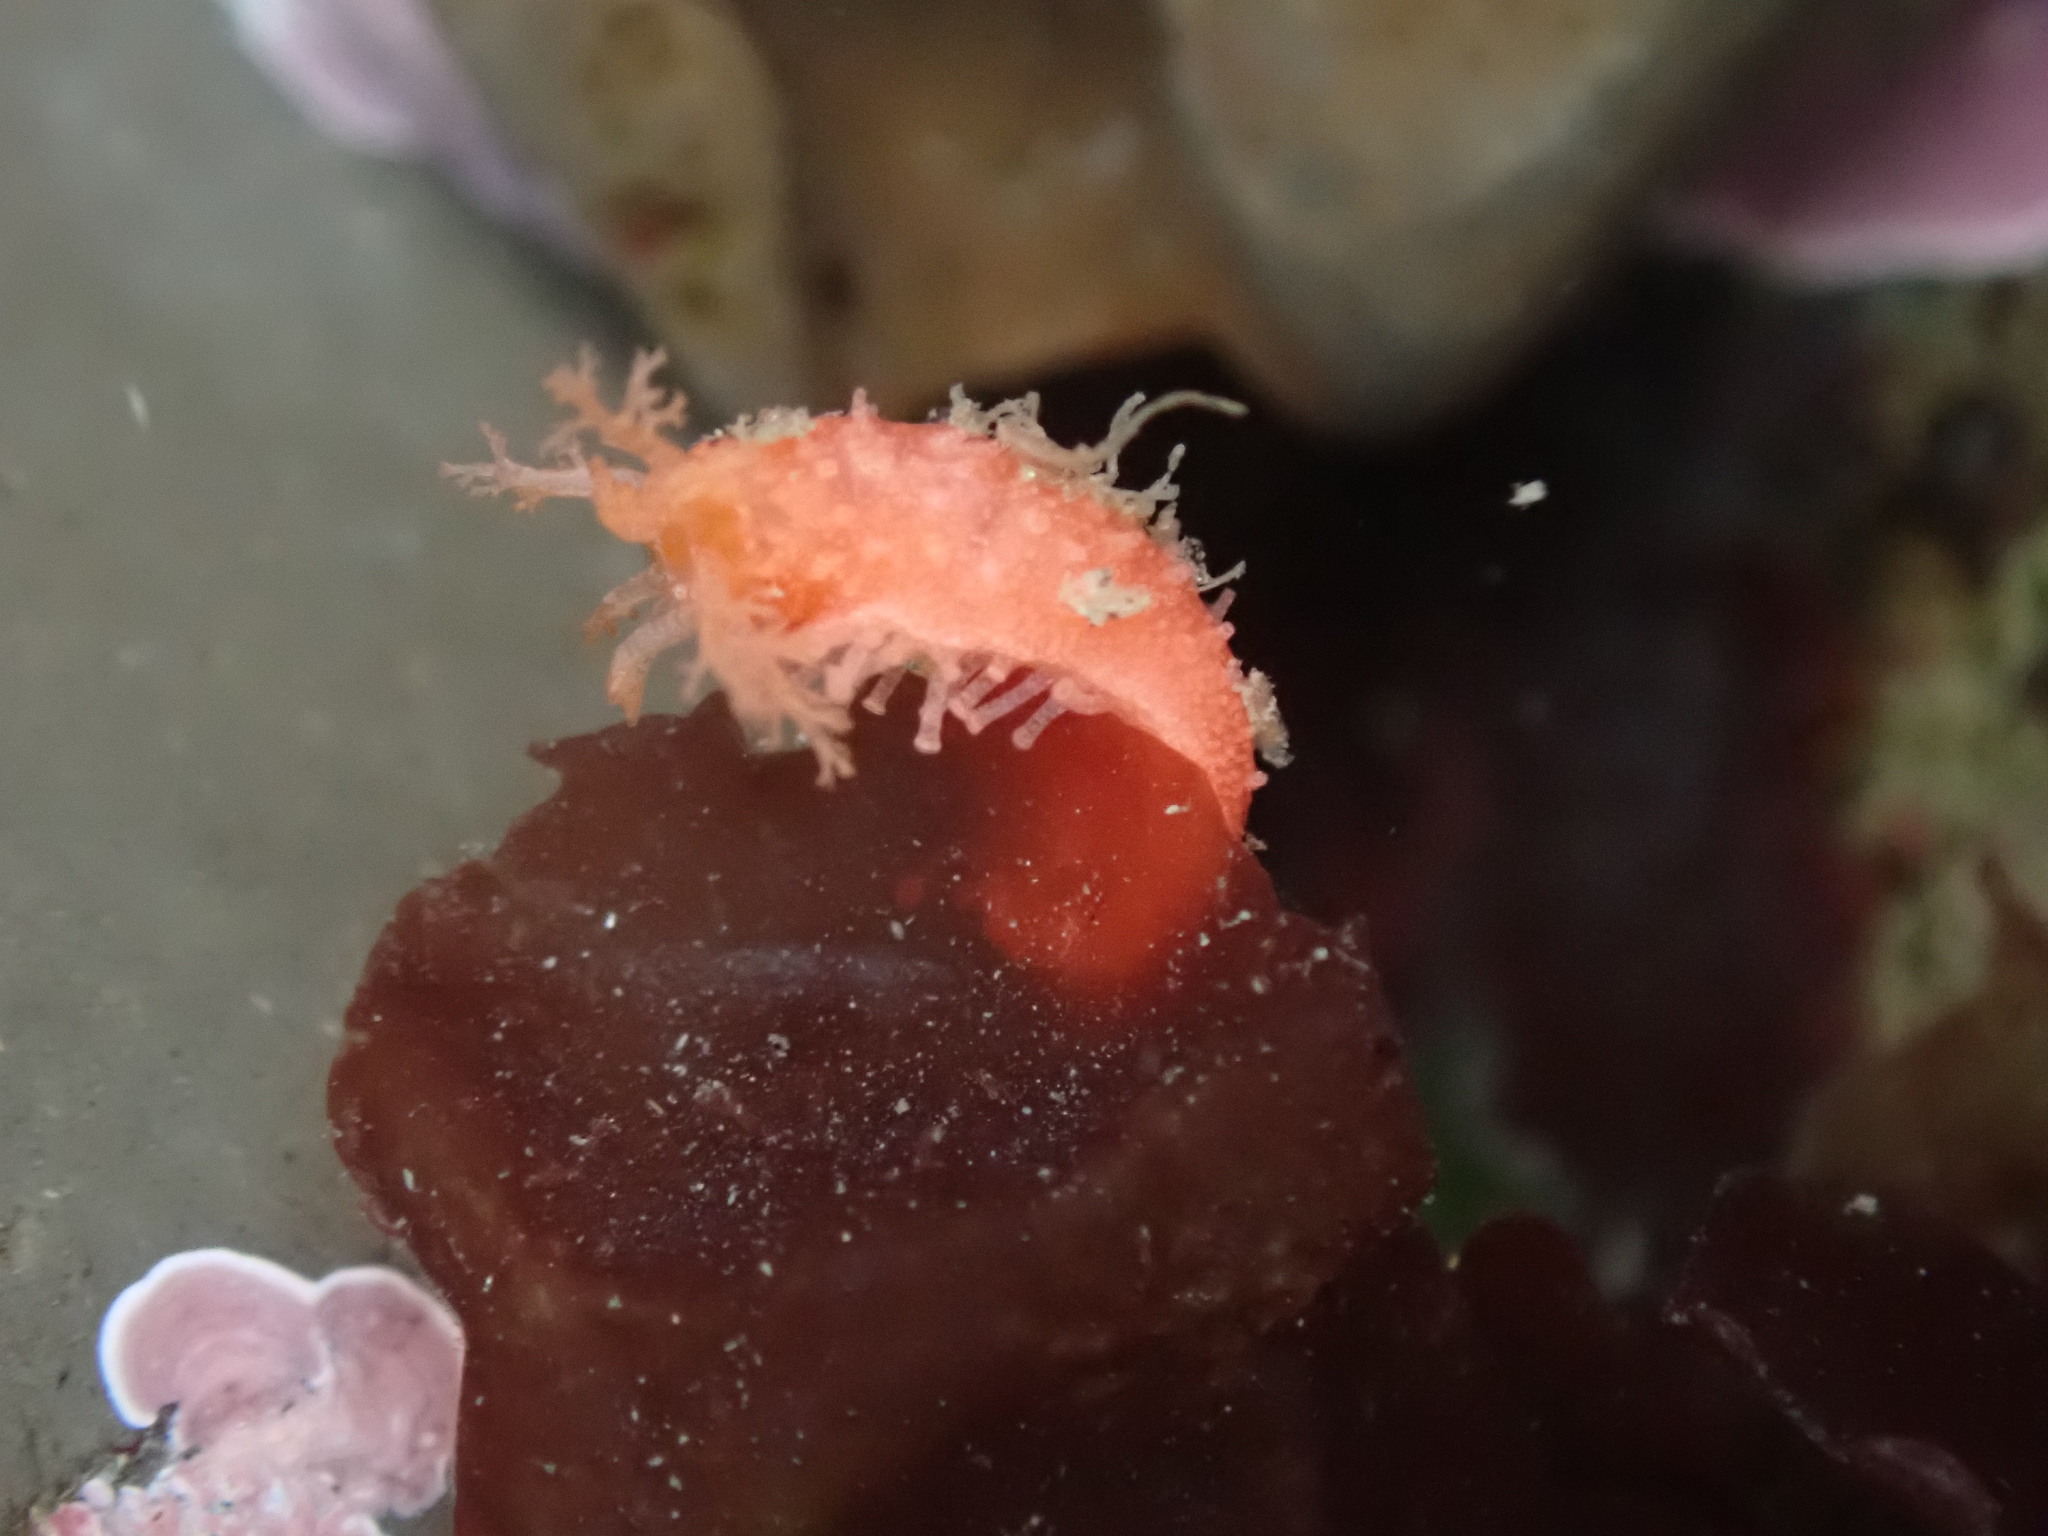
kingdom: Animalia
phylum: Echinodermata
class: Holothuroidea
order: Dendrochirotida
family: Psolidae
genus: Lissothuria
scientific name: Lissothuria nutriens
